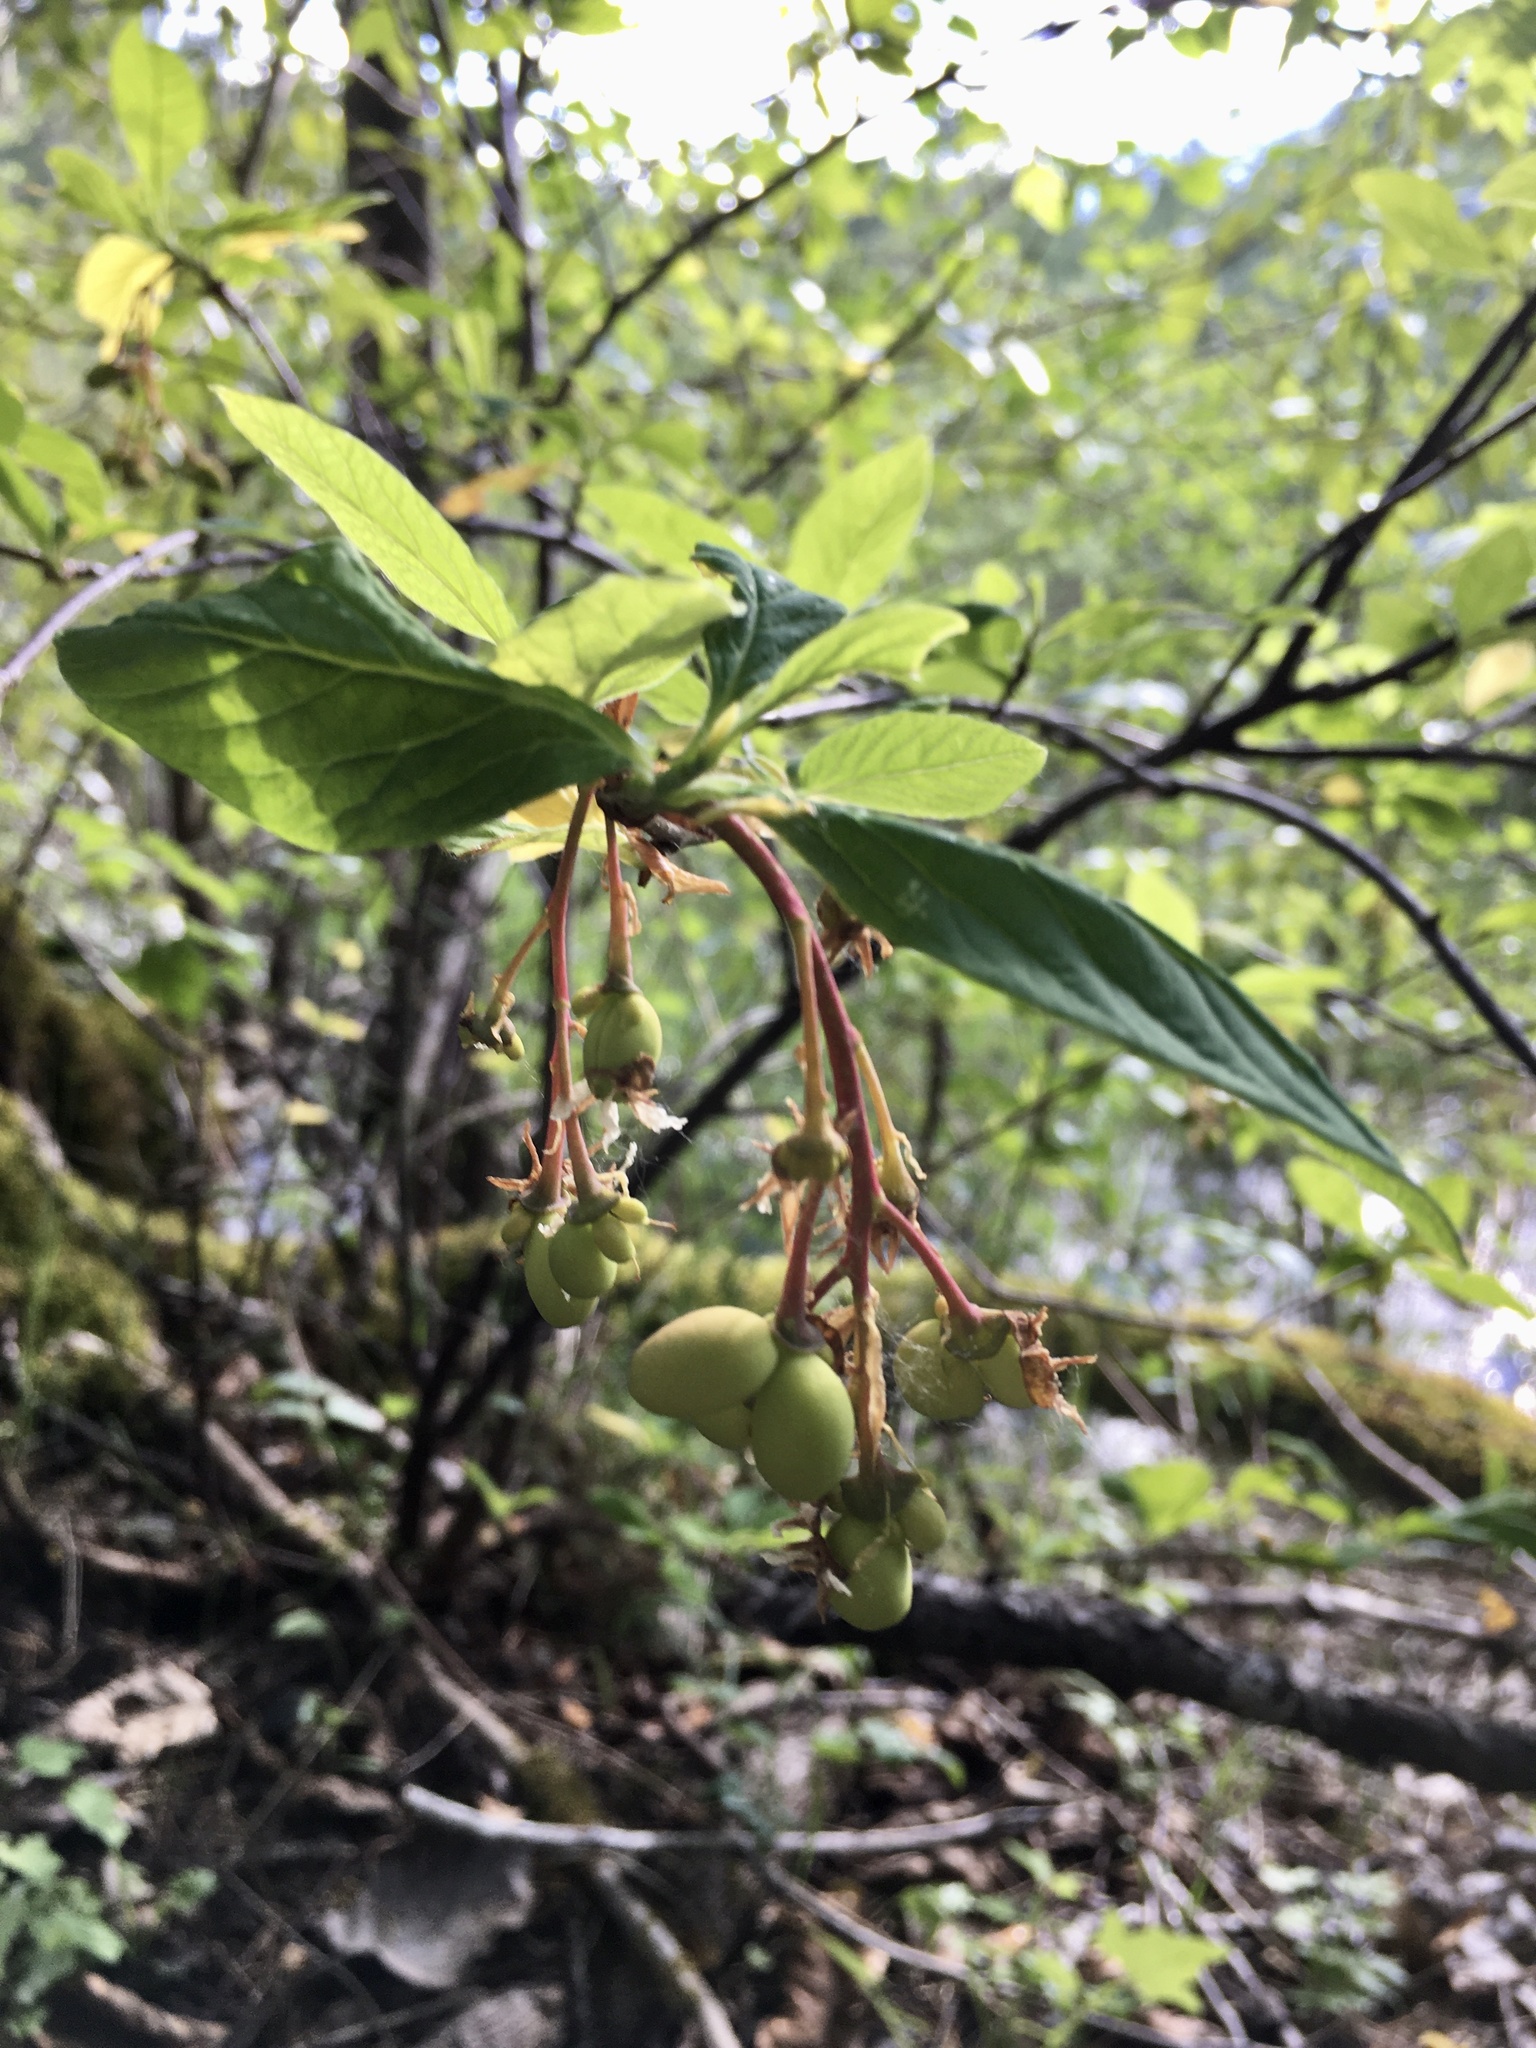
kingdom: Plantae
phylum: Tracheophyta
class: Magnoliopsida
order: Rosales
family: Rosaceae
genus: Oemleria
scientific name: Oemleria cerasiformis
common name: Osoberry
